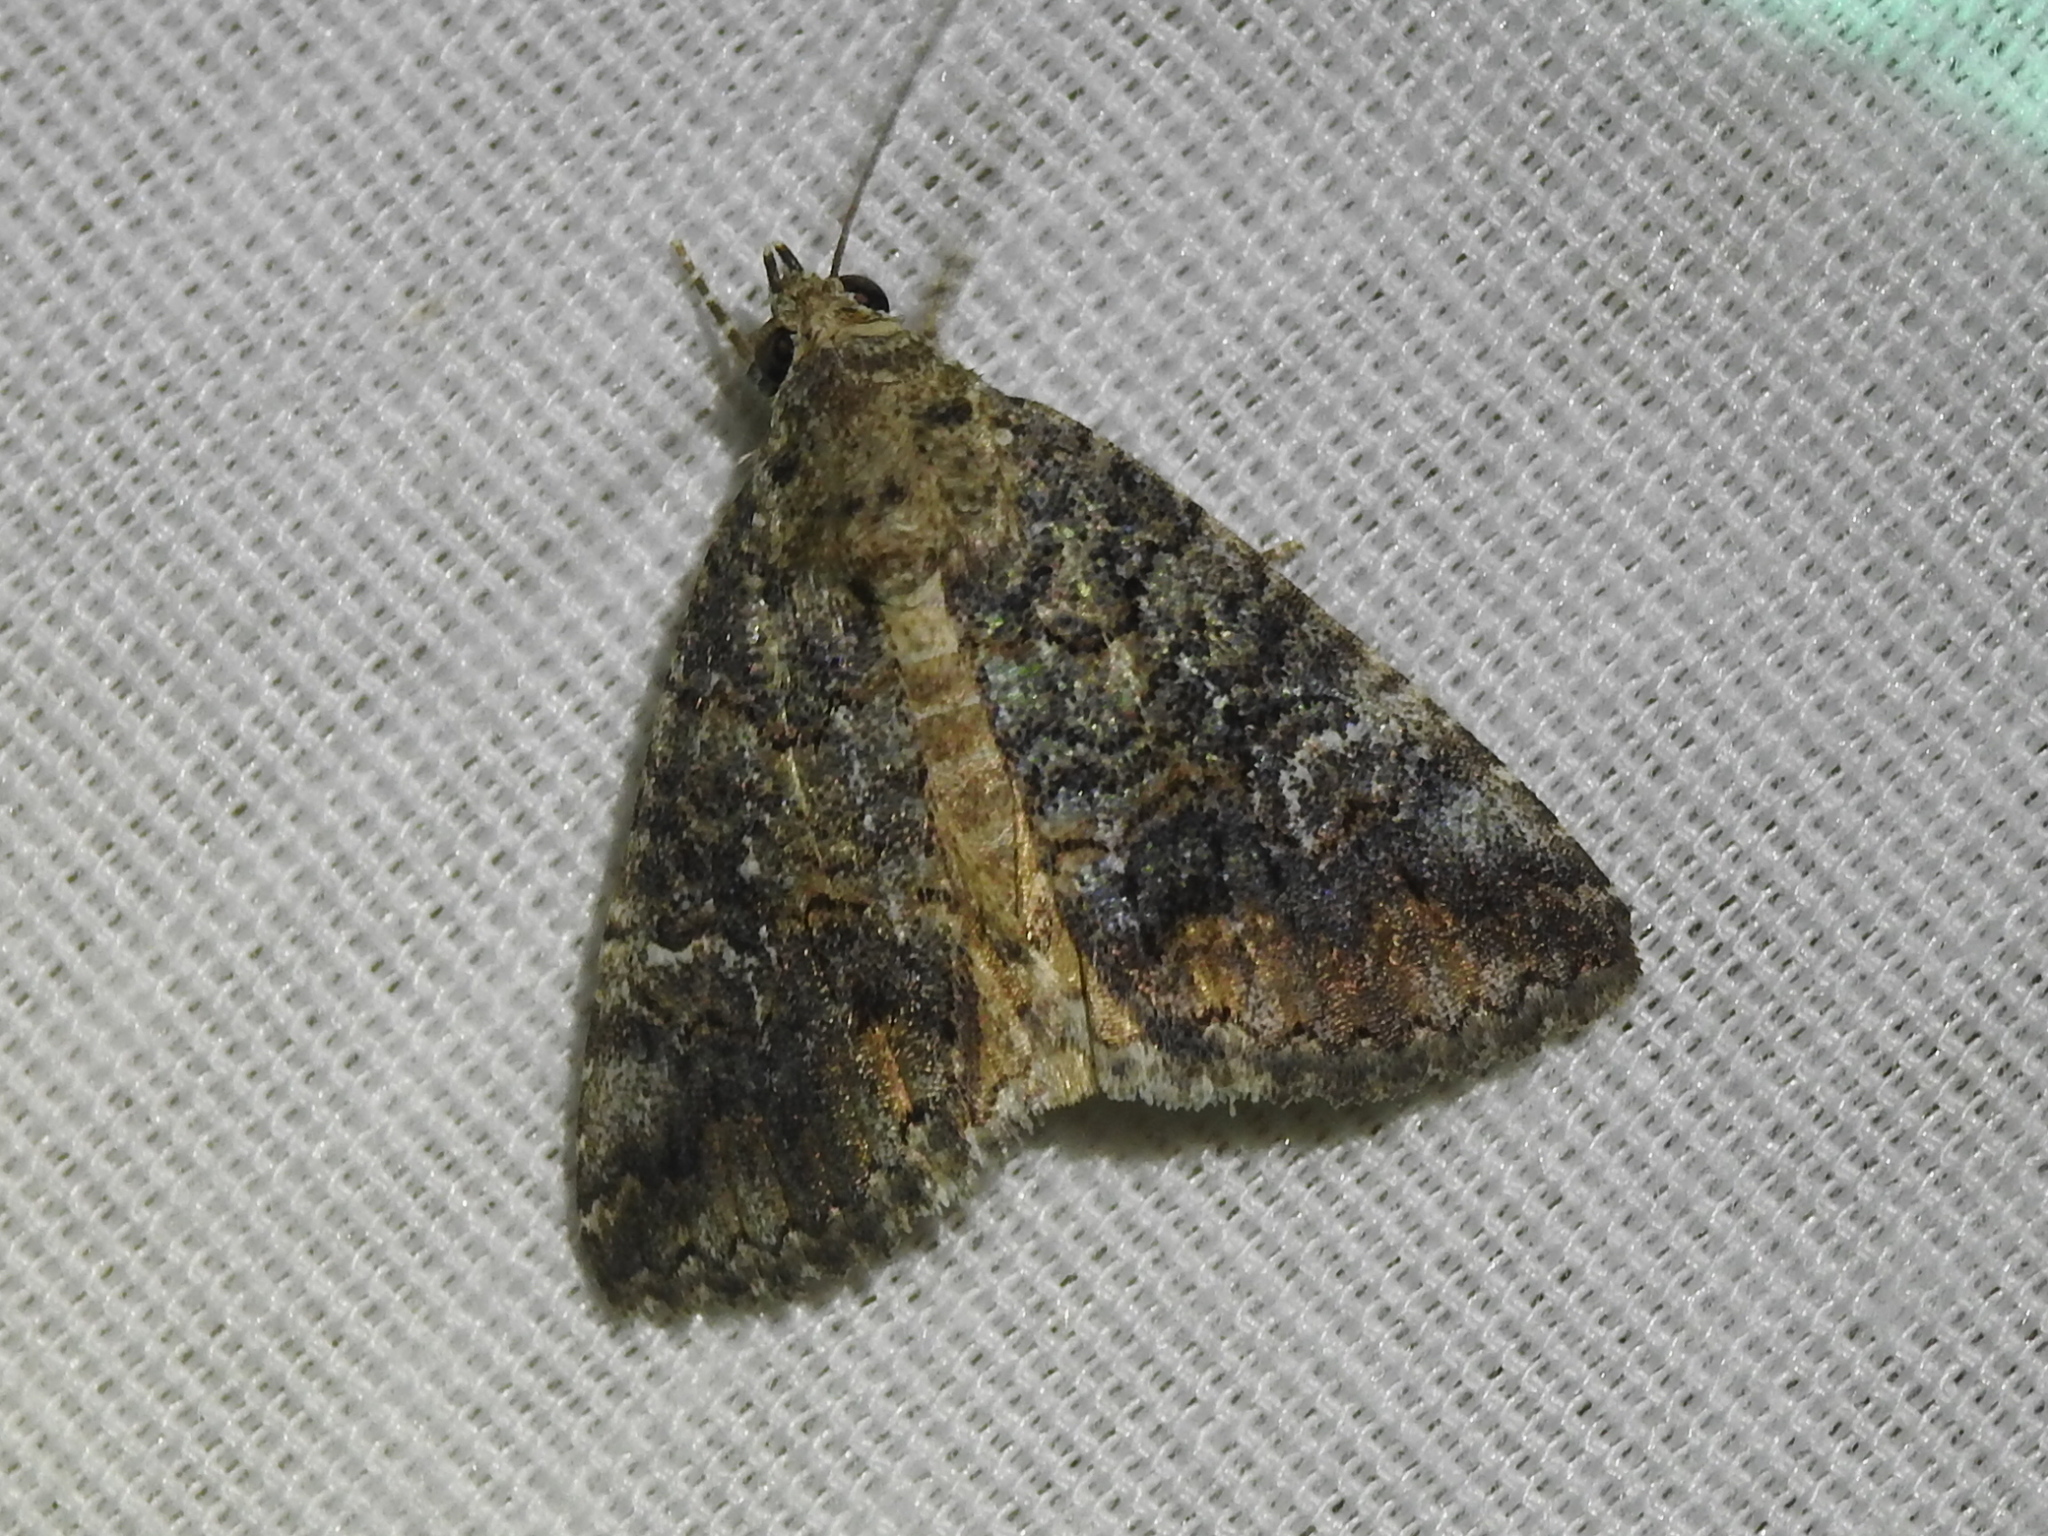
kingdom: Animalia
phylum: Arthropoda
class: Insecta
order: Lepidoptera
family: Erebidae
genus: Eubolina
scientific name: Eubolina impartialis
